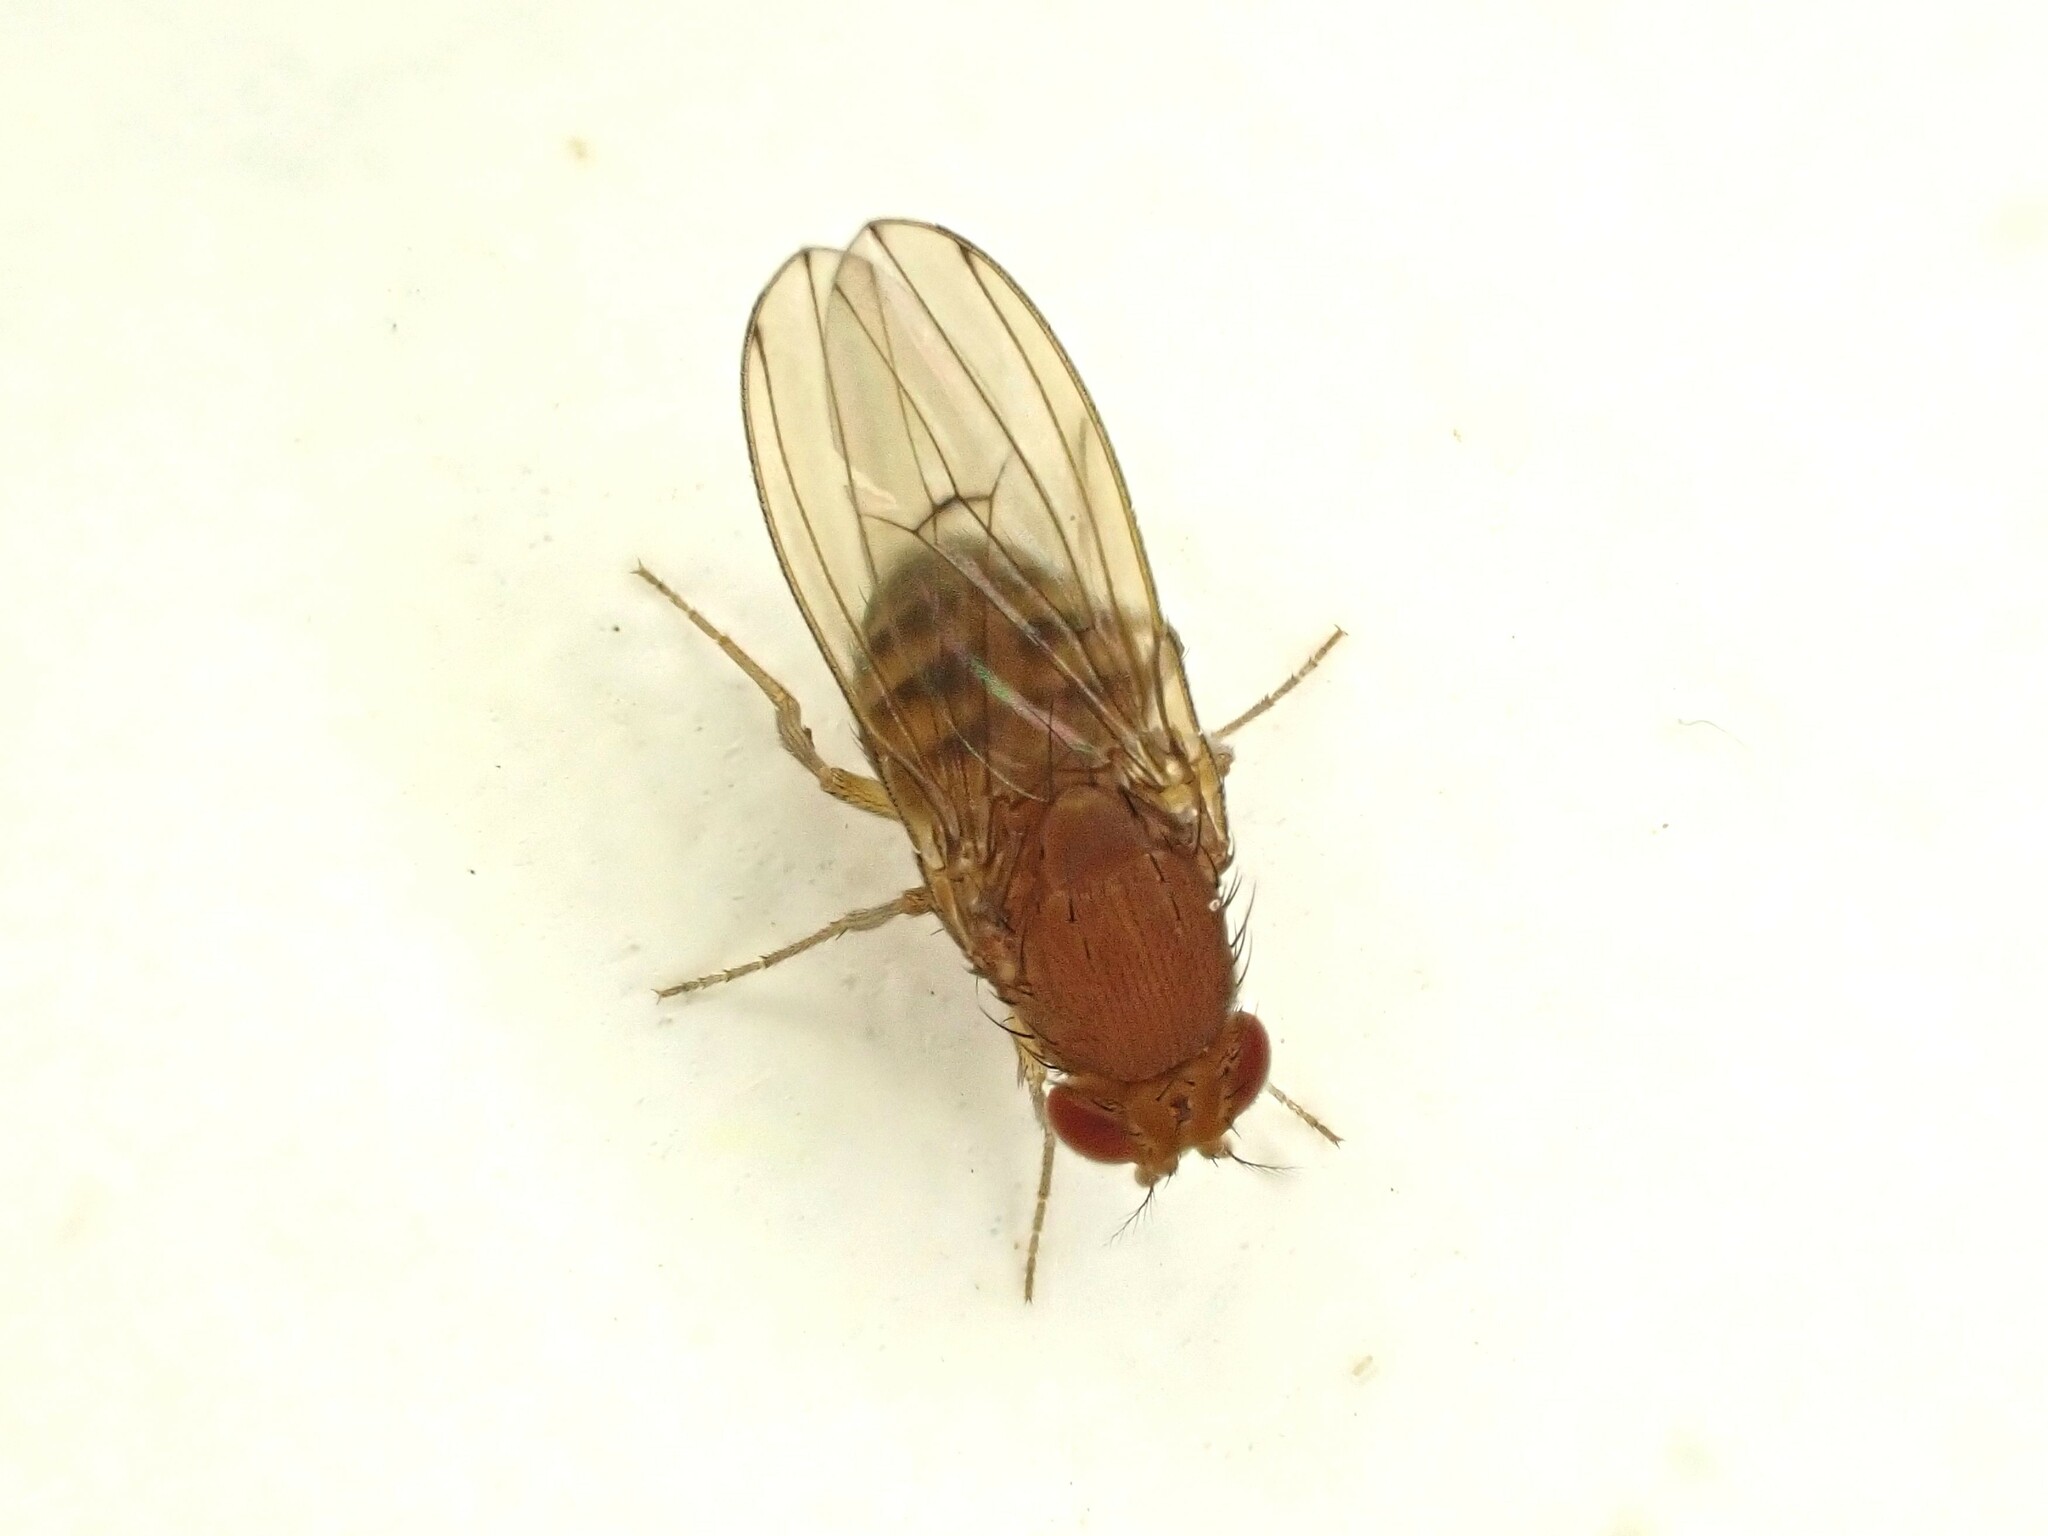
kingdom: Animalia
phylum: Arthropoda
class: Insecta
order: Diptera
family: Drosophilidae
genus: Drosophila
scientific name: Drosophila immigrans
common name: Pomace fly
